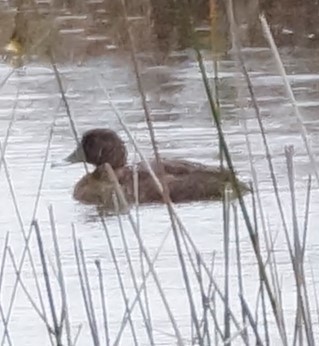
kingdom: Animalia
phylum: Chordata
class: Aves
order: Anseriformes
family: Anatidae
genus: Aythya
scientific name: Aythya australis
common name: Hardhead
